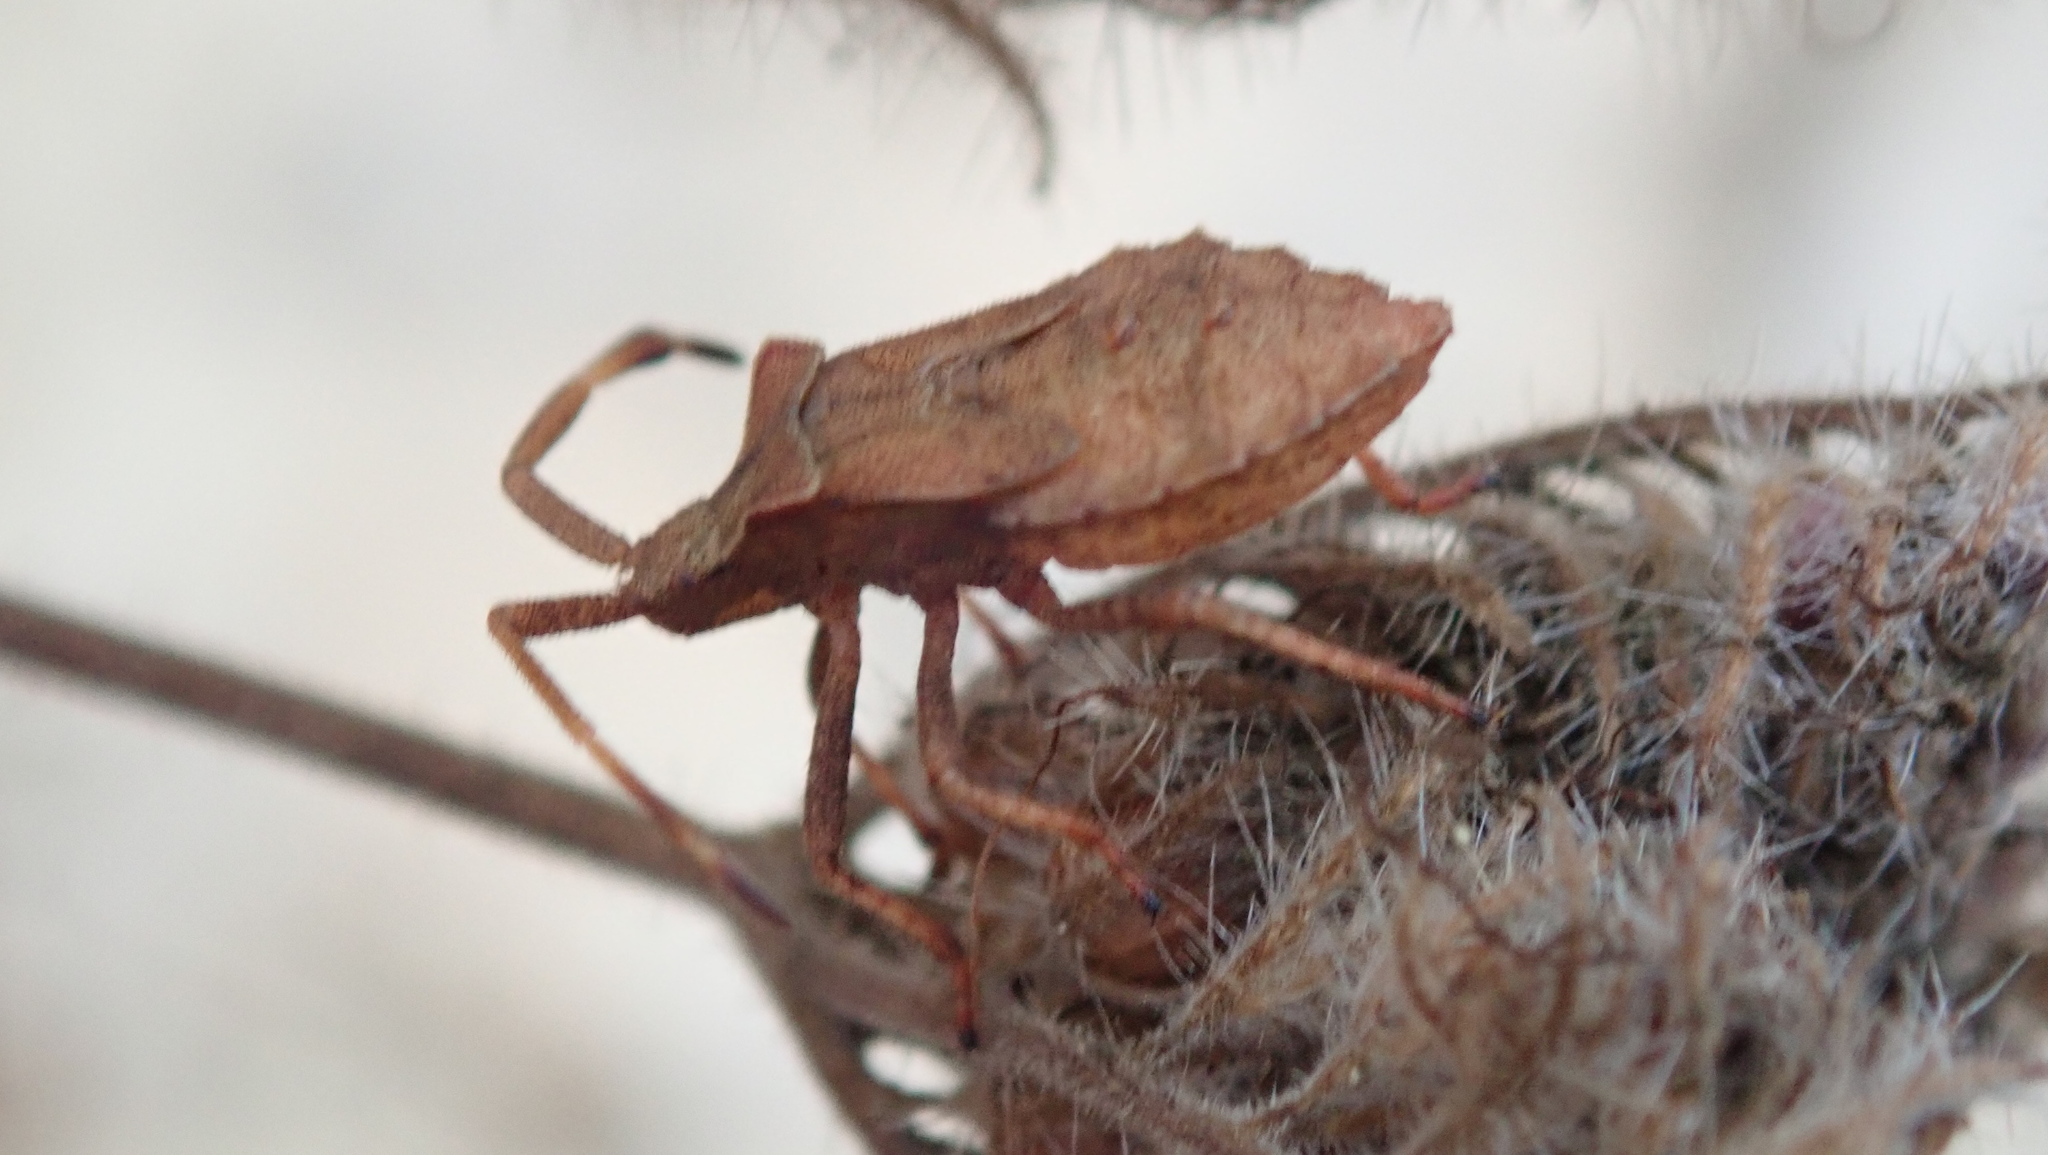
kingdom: Animalia
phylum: Arthropoda
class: Insecta
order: Hemiptera
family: Coreidae
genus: Coreus
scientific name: Coreus marginatus
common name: Dock bug
